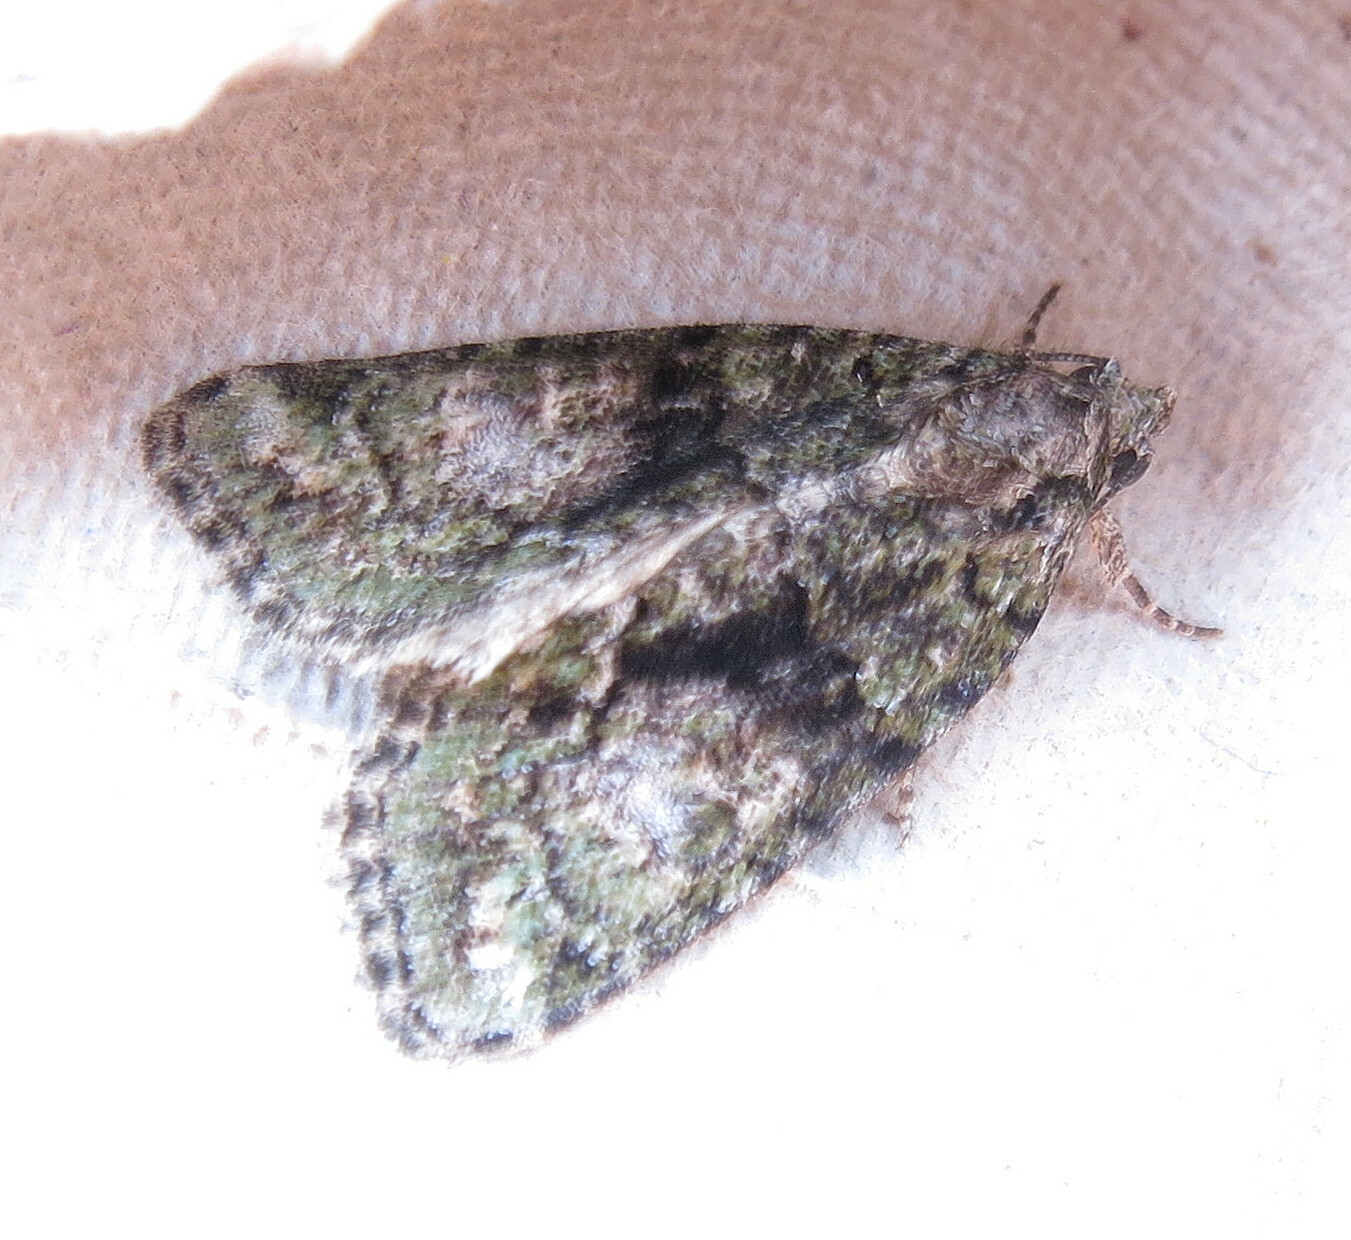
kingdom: Animalia
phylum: Arthropoda
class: Insecta
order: Lepidoptera
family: Noctuidae
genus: Cryphia
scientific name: Cryphia algae
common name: Tree-lichen beauty
